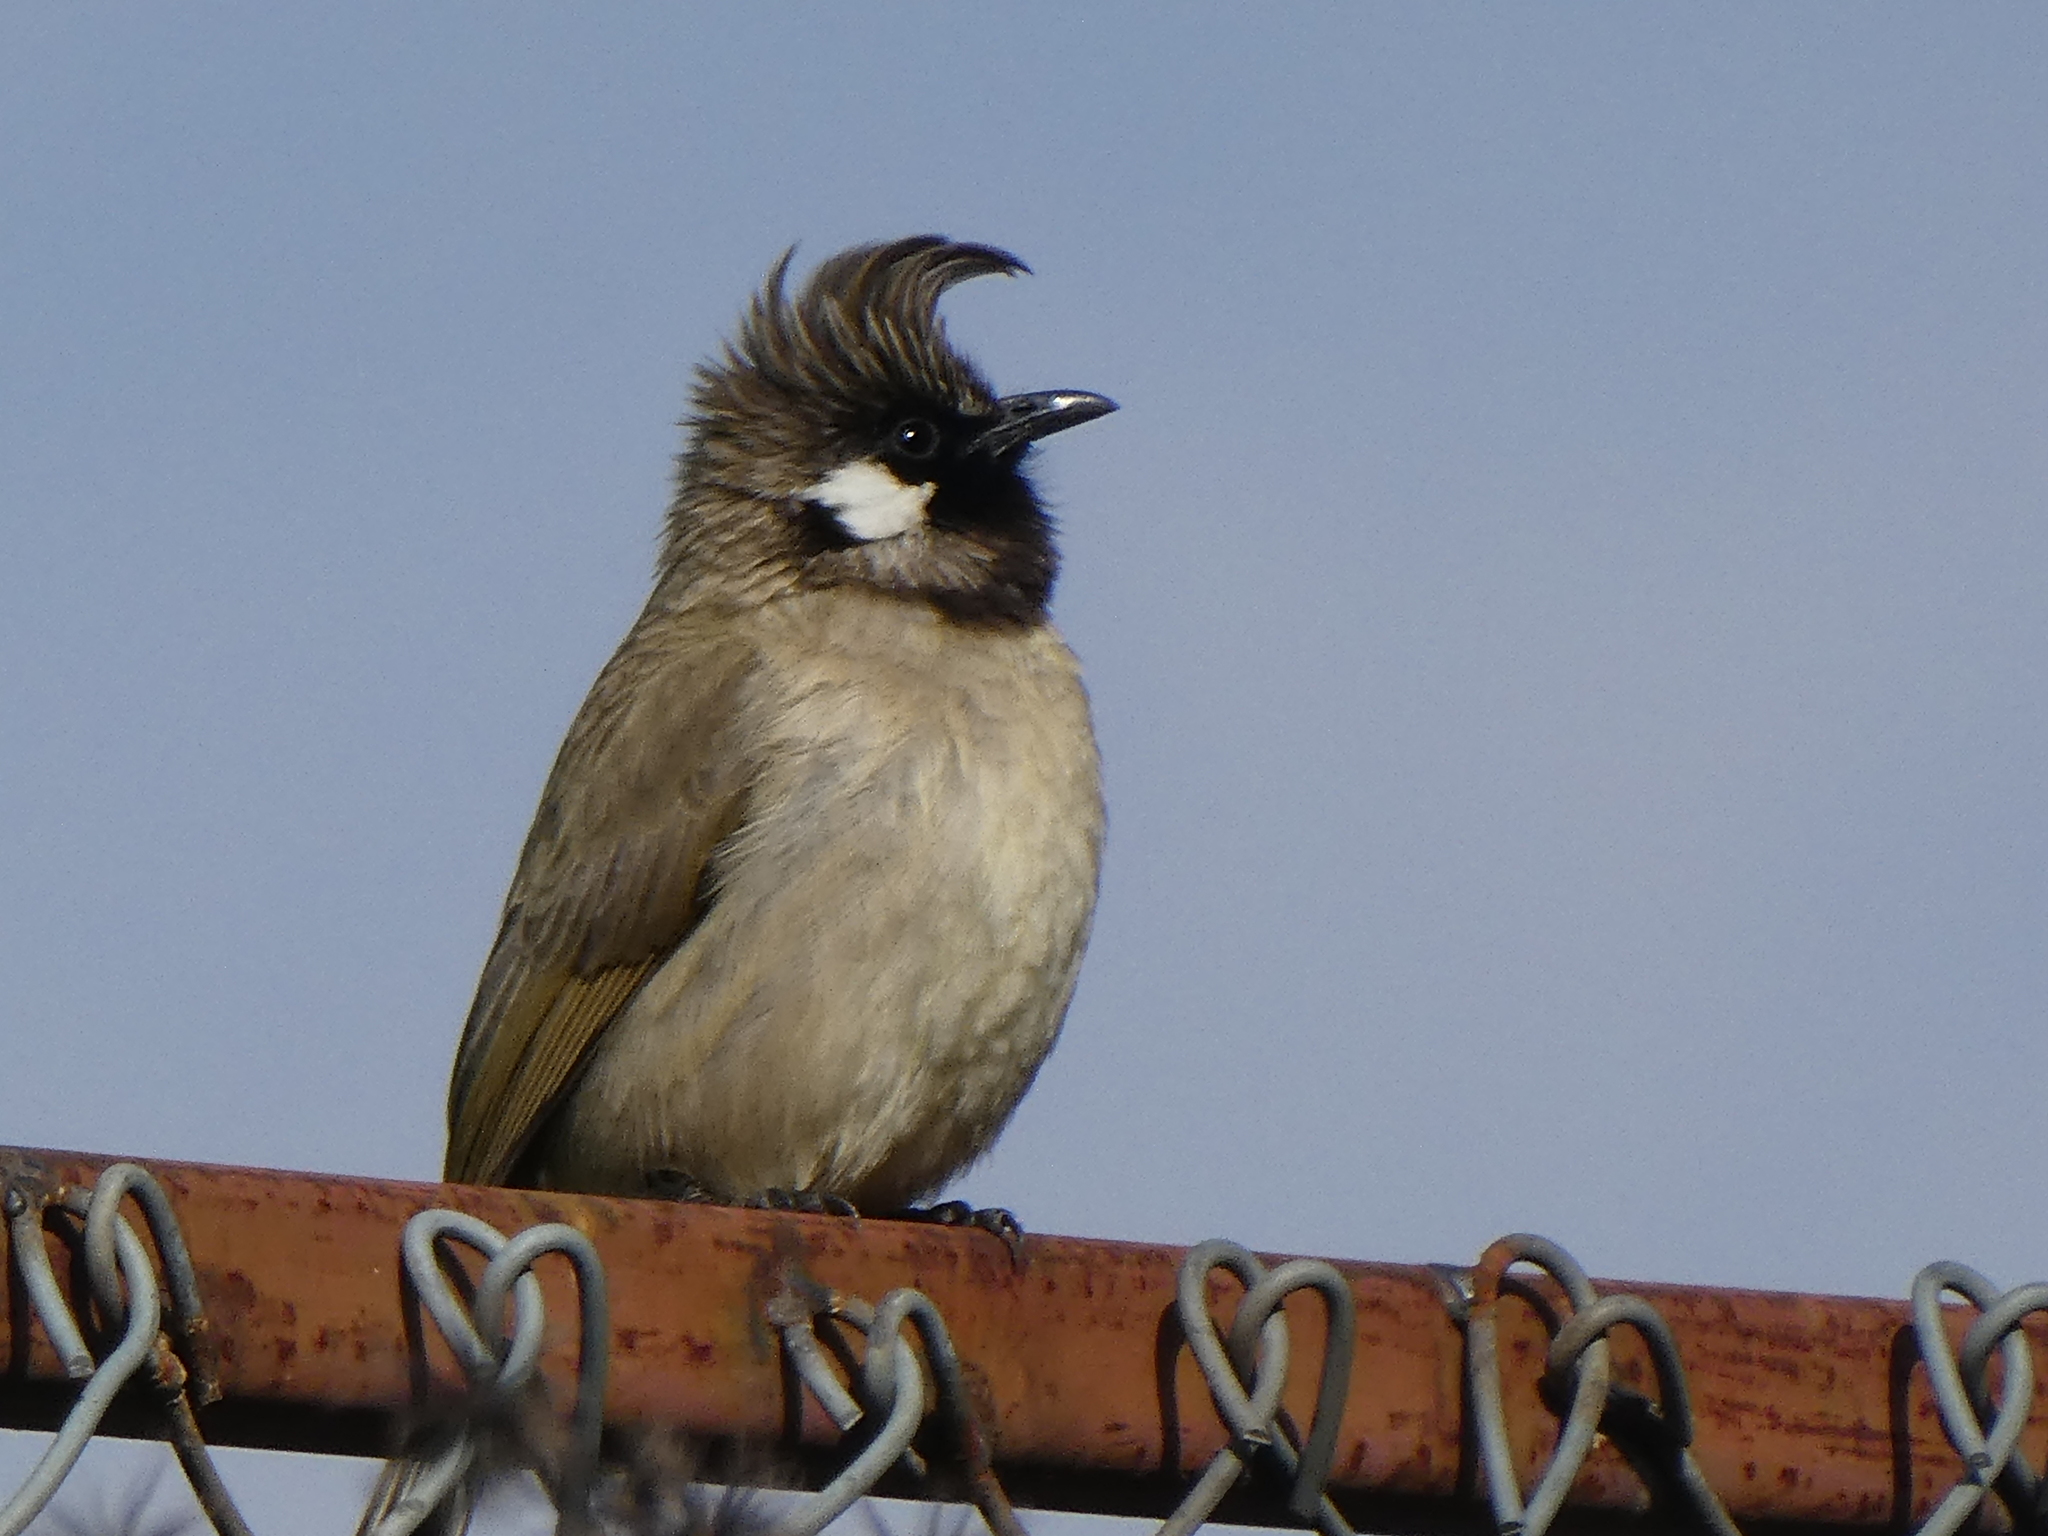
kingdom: Animalia
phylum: Chordata
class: Aves
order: Passeriformes
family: Pycnonotidae
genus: Pycnonotus
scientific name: Pycnonotus leucogenys
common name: Himalayan bulbul
